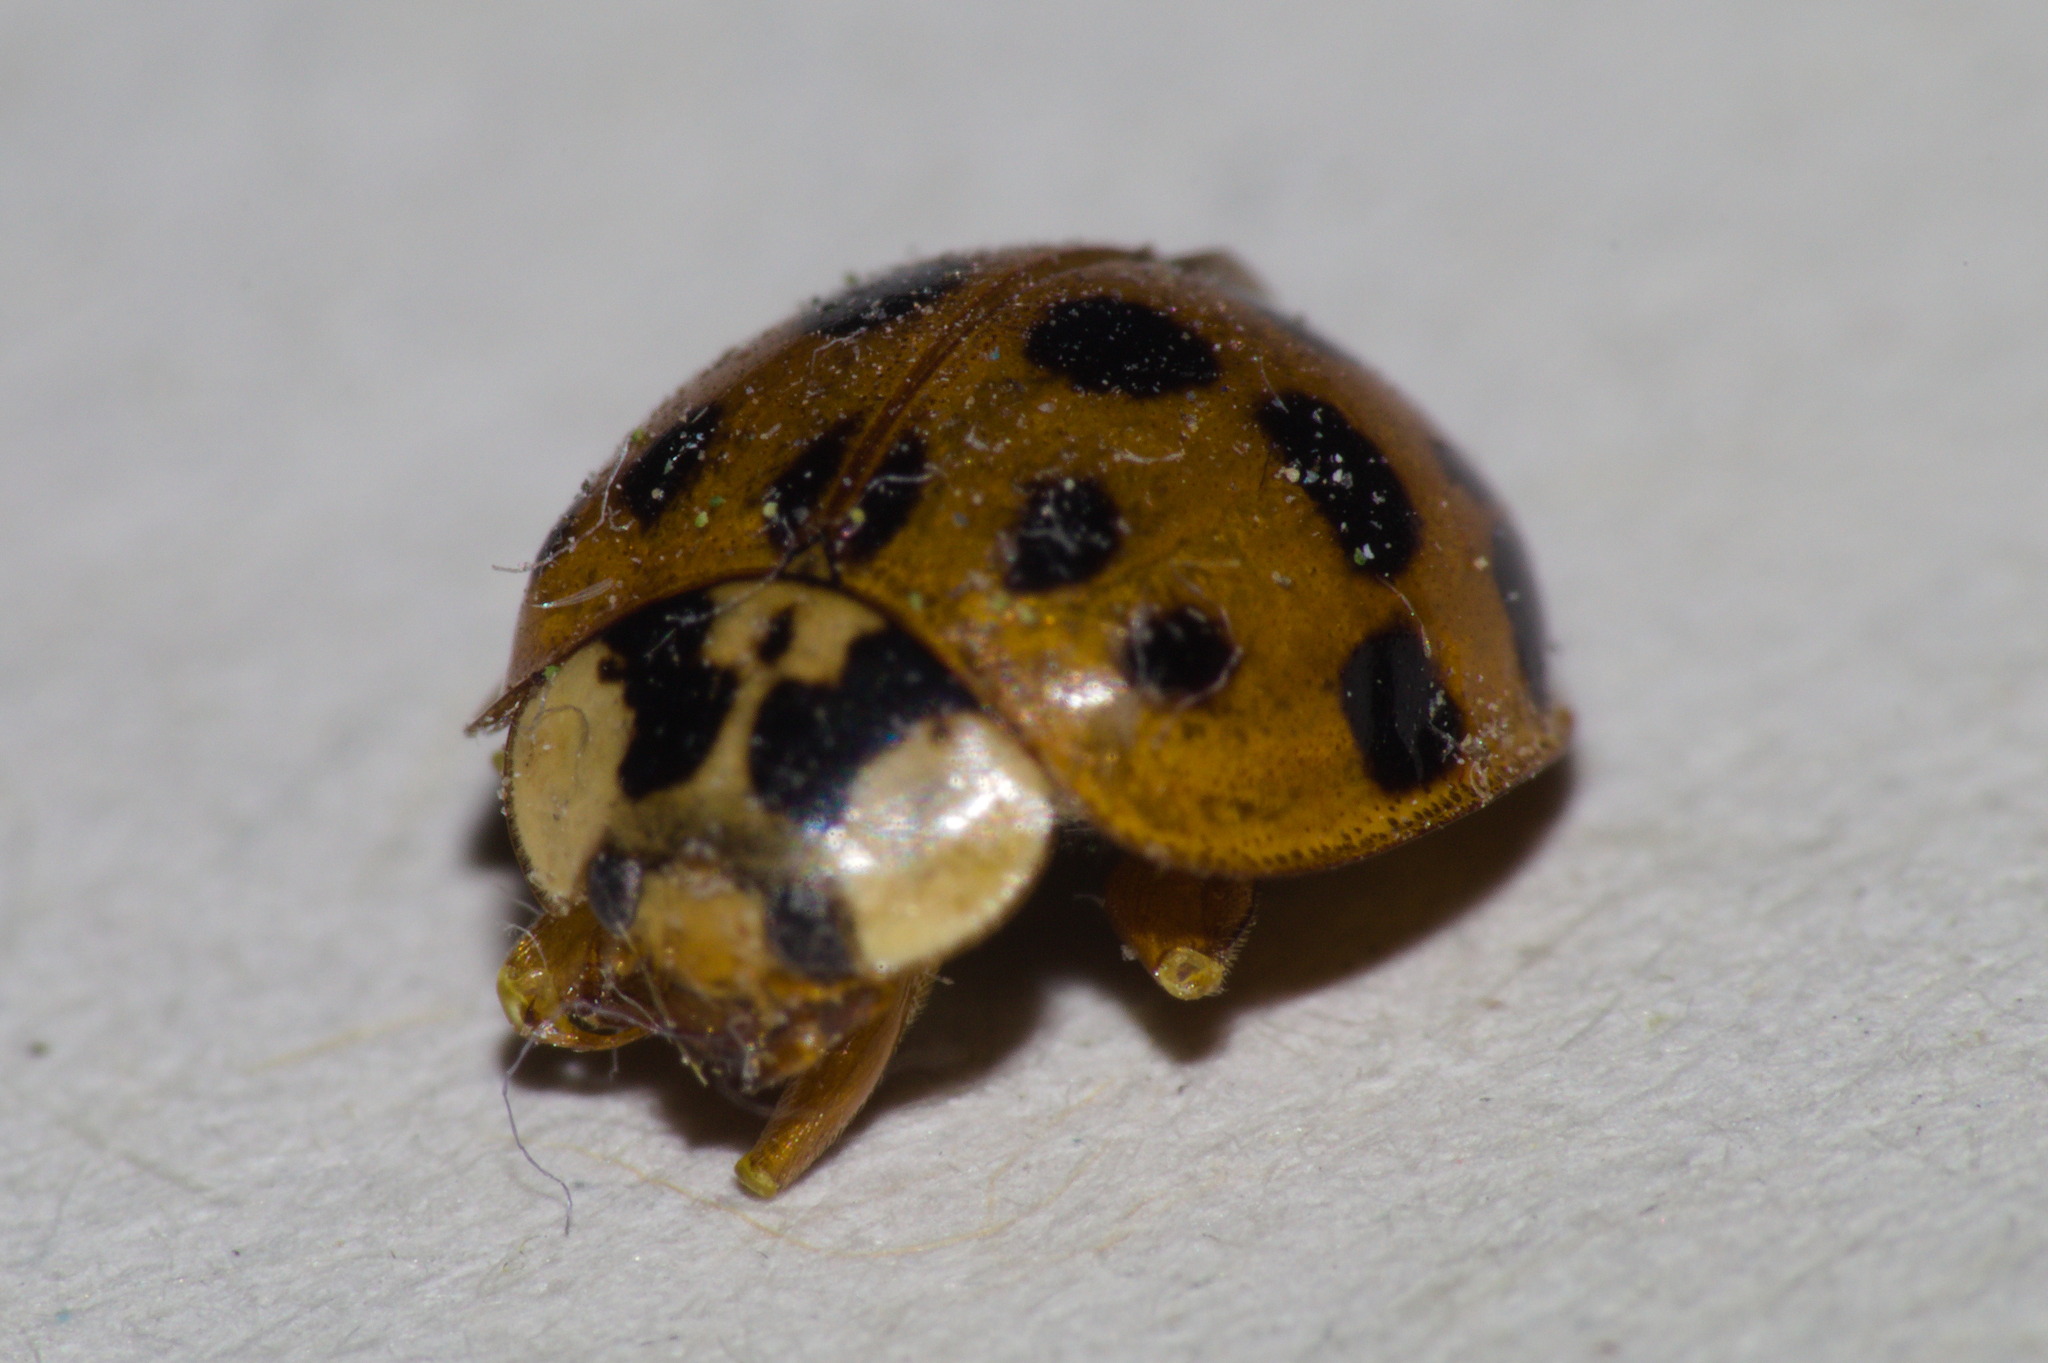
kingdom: Animalia
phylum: Arthropoda
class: Insecta
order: Coleoptera
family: Coccinellidae
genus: Harmonia
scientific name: Harmonia axyridis
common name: Harlequin ladybird
